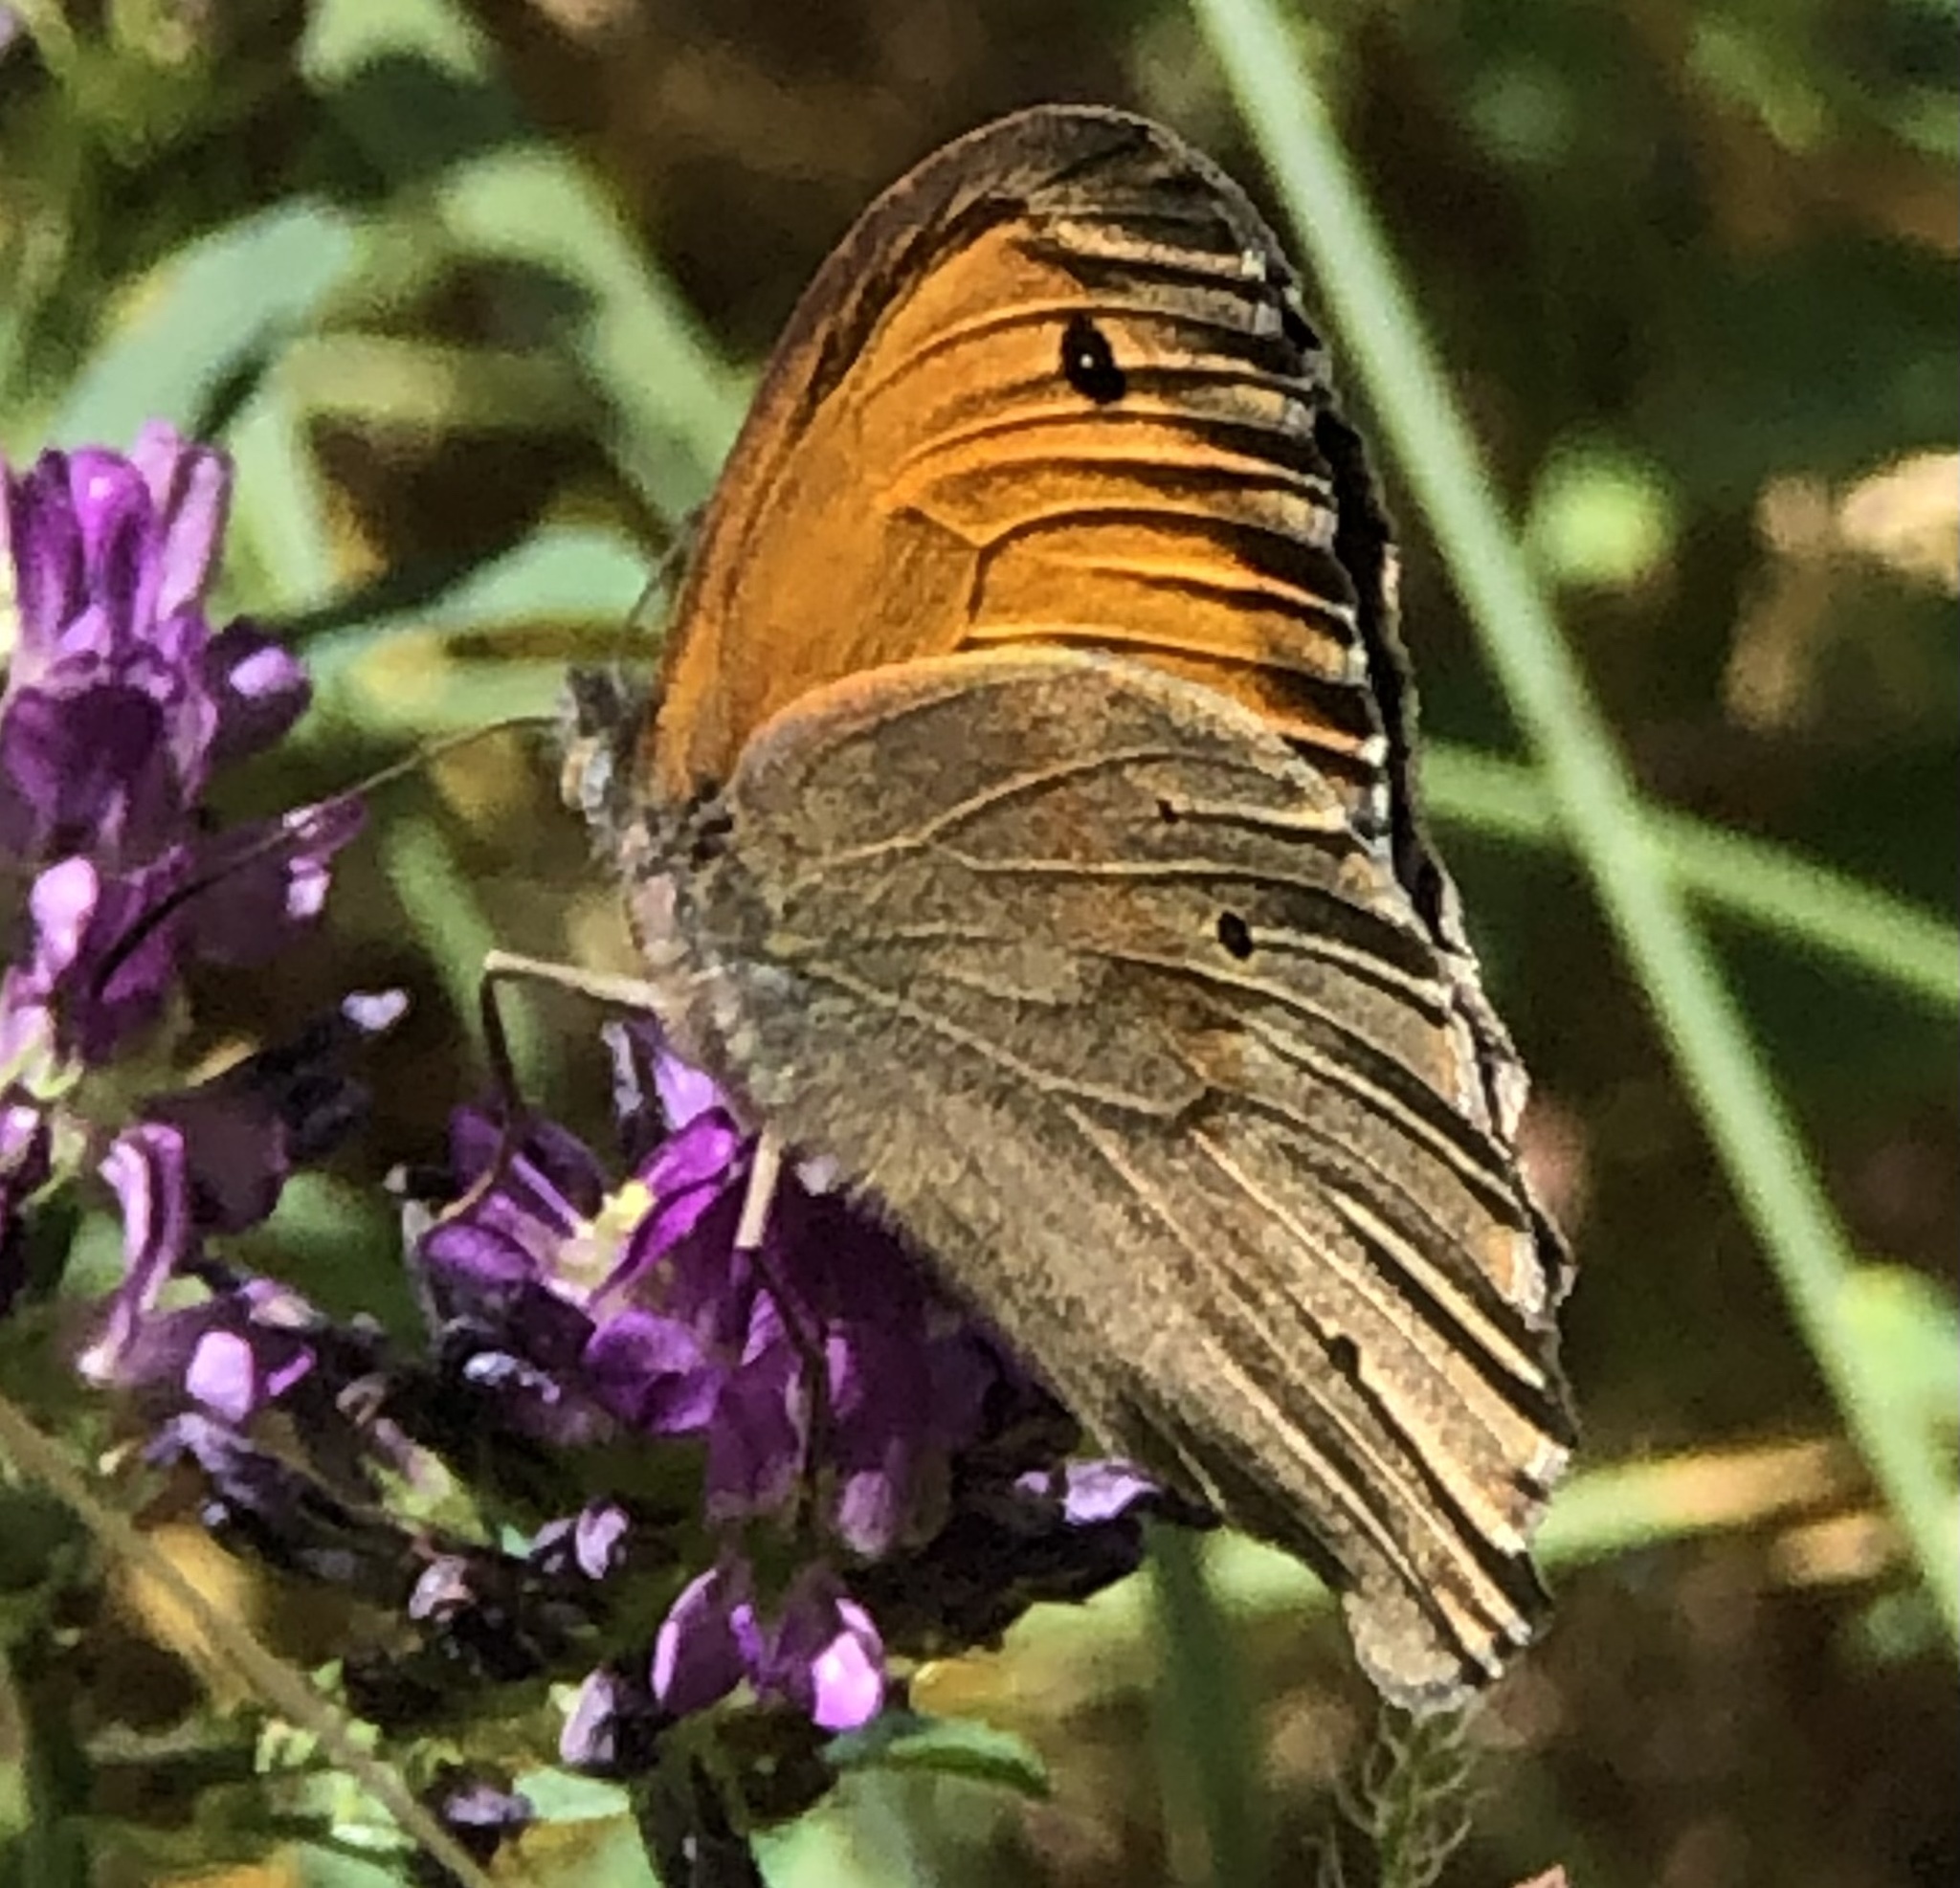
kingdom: Animalia
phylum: Arthropoda
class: Insecta
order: Lepidoptera
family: Nymphalidae
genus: Maniola
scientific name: Maniola jurtina
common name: Meadow brown
